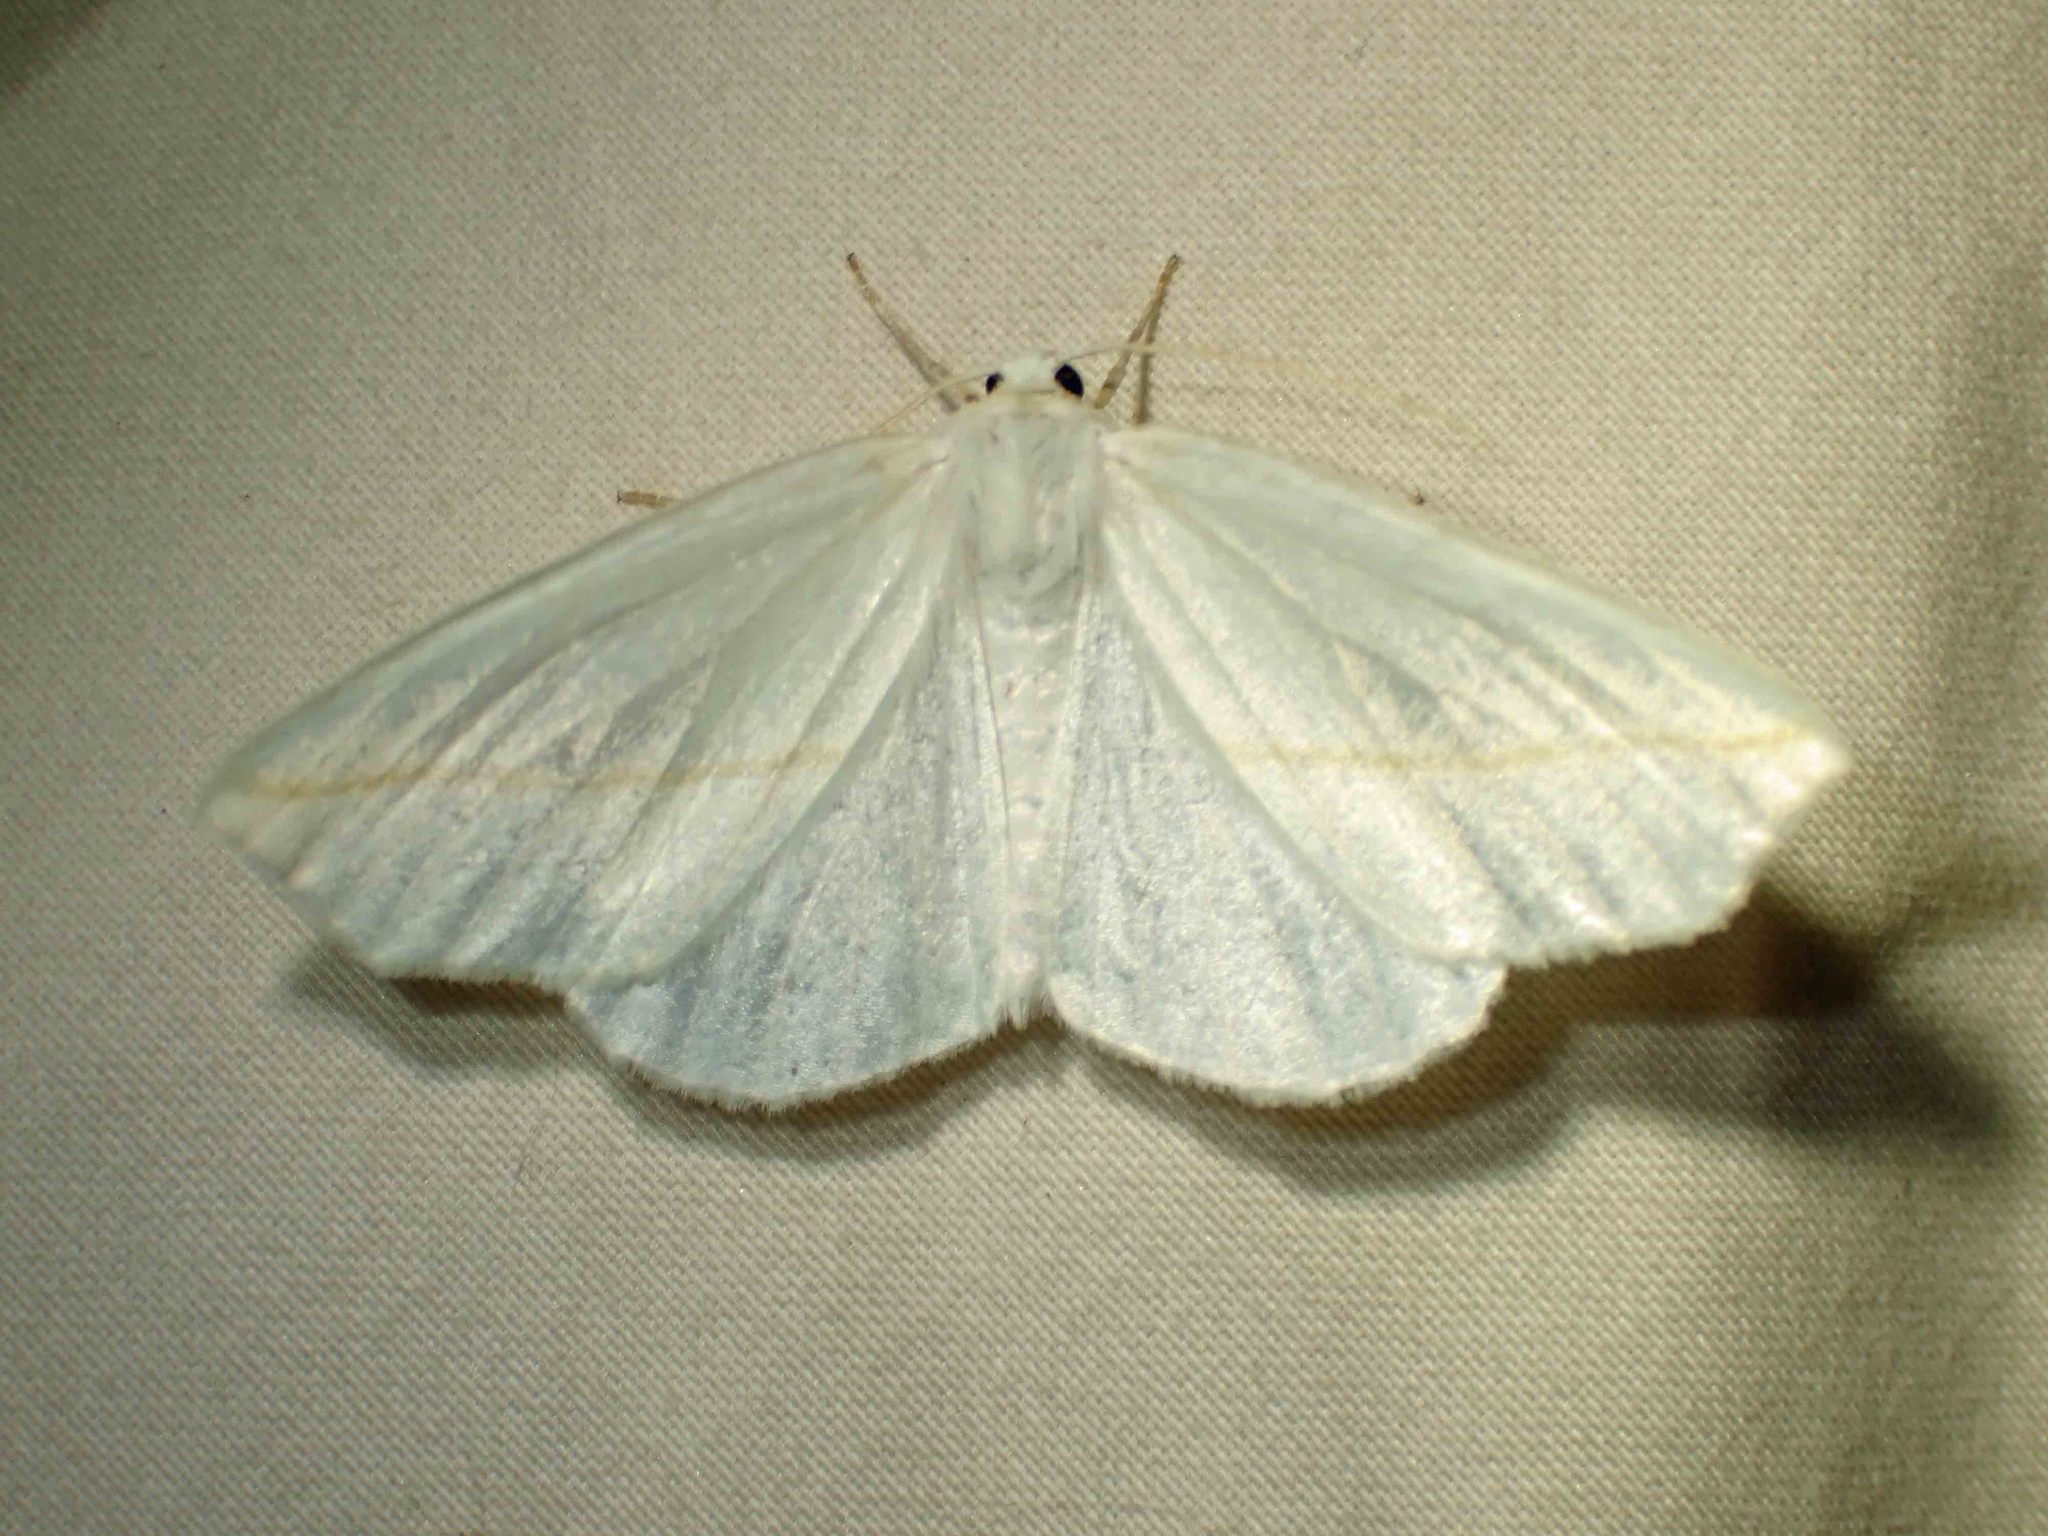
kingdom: Animalia
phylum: Arthropoda
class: Insecta
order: Lepidoptera
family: Geometridae
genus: Tetracis
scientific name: Tetracis cachexiata
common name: White slant-line
